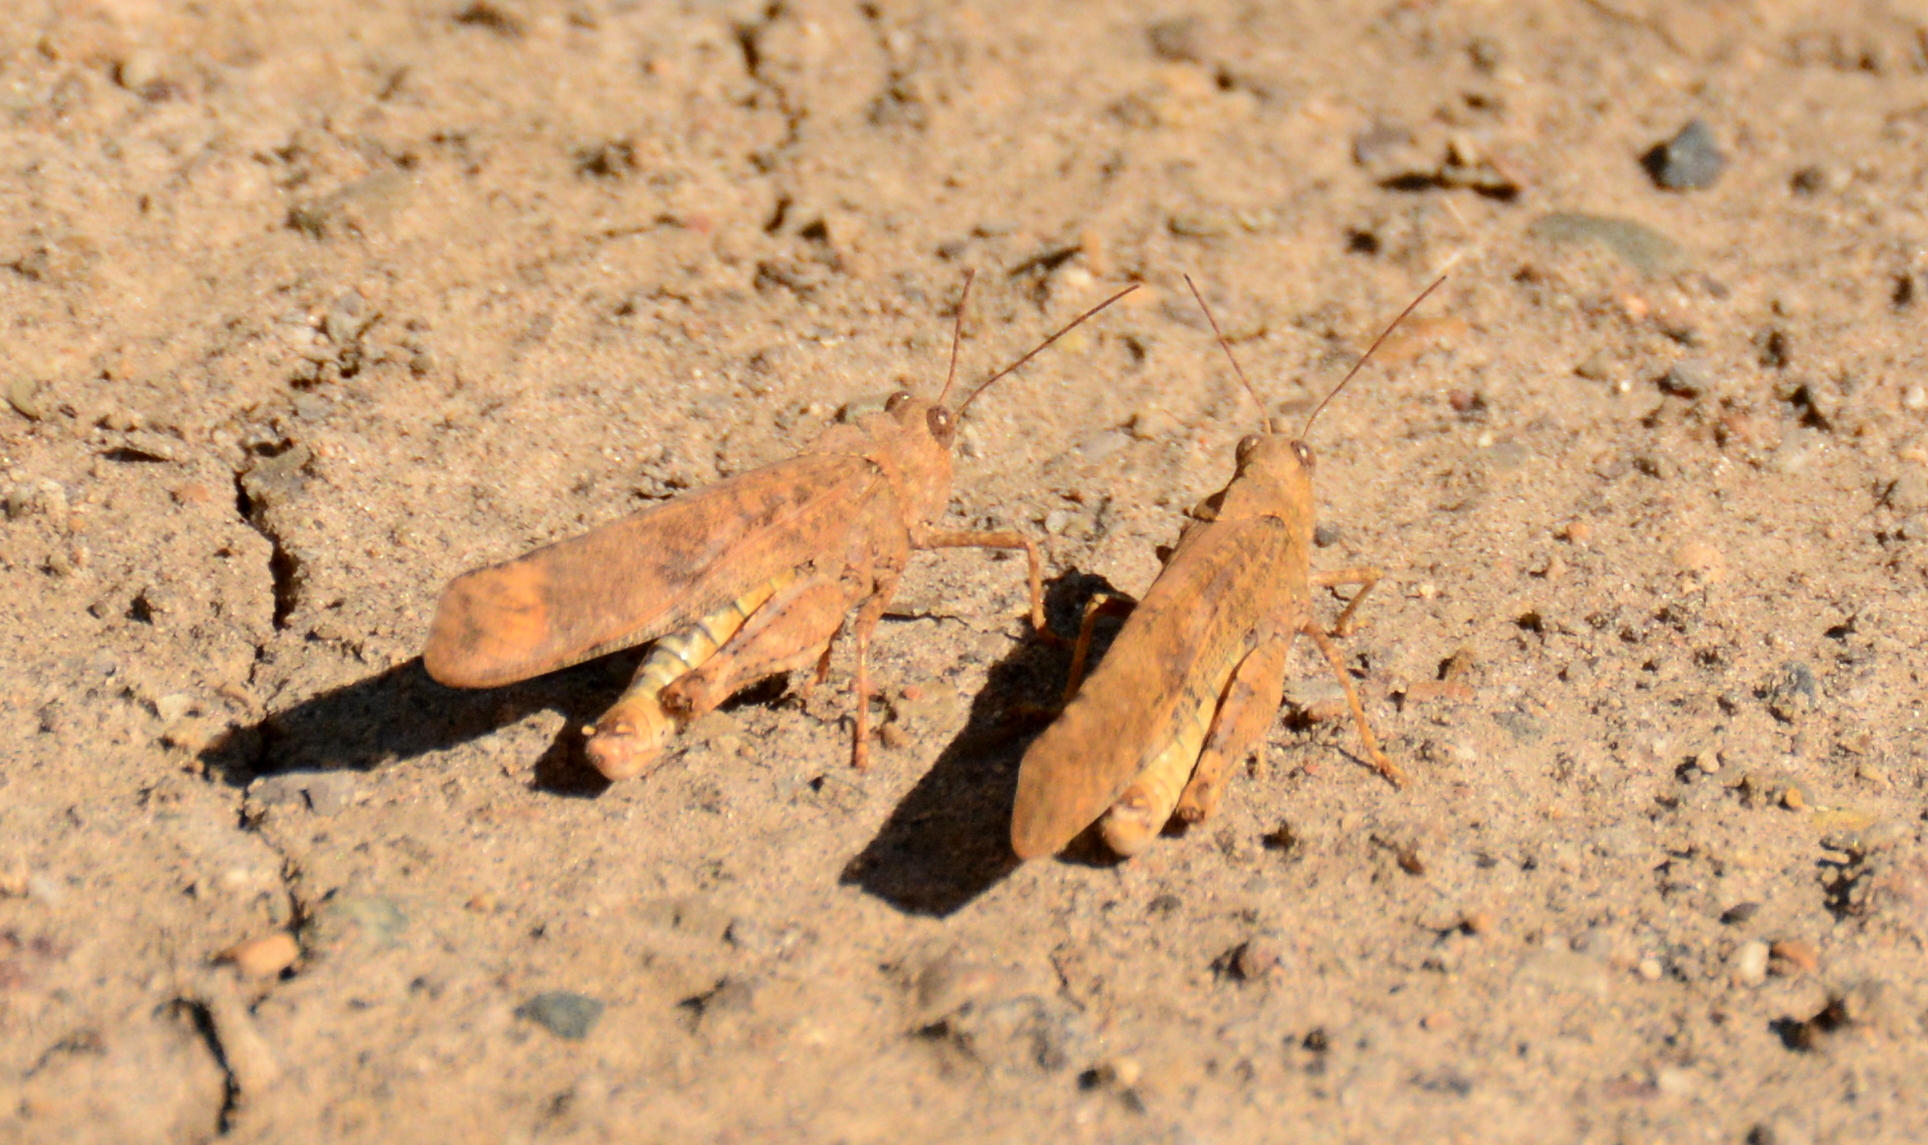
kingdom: Animalia
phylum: Arthropoda
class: Insecta
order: Orthoptera
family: Acrididae
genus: Dissosteira
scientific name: Dissosteira carolina
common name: Carolina grasshopper
